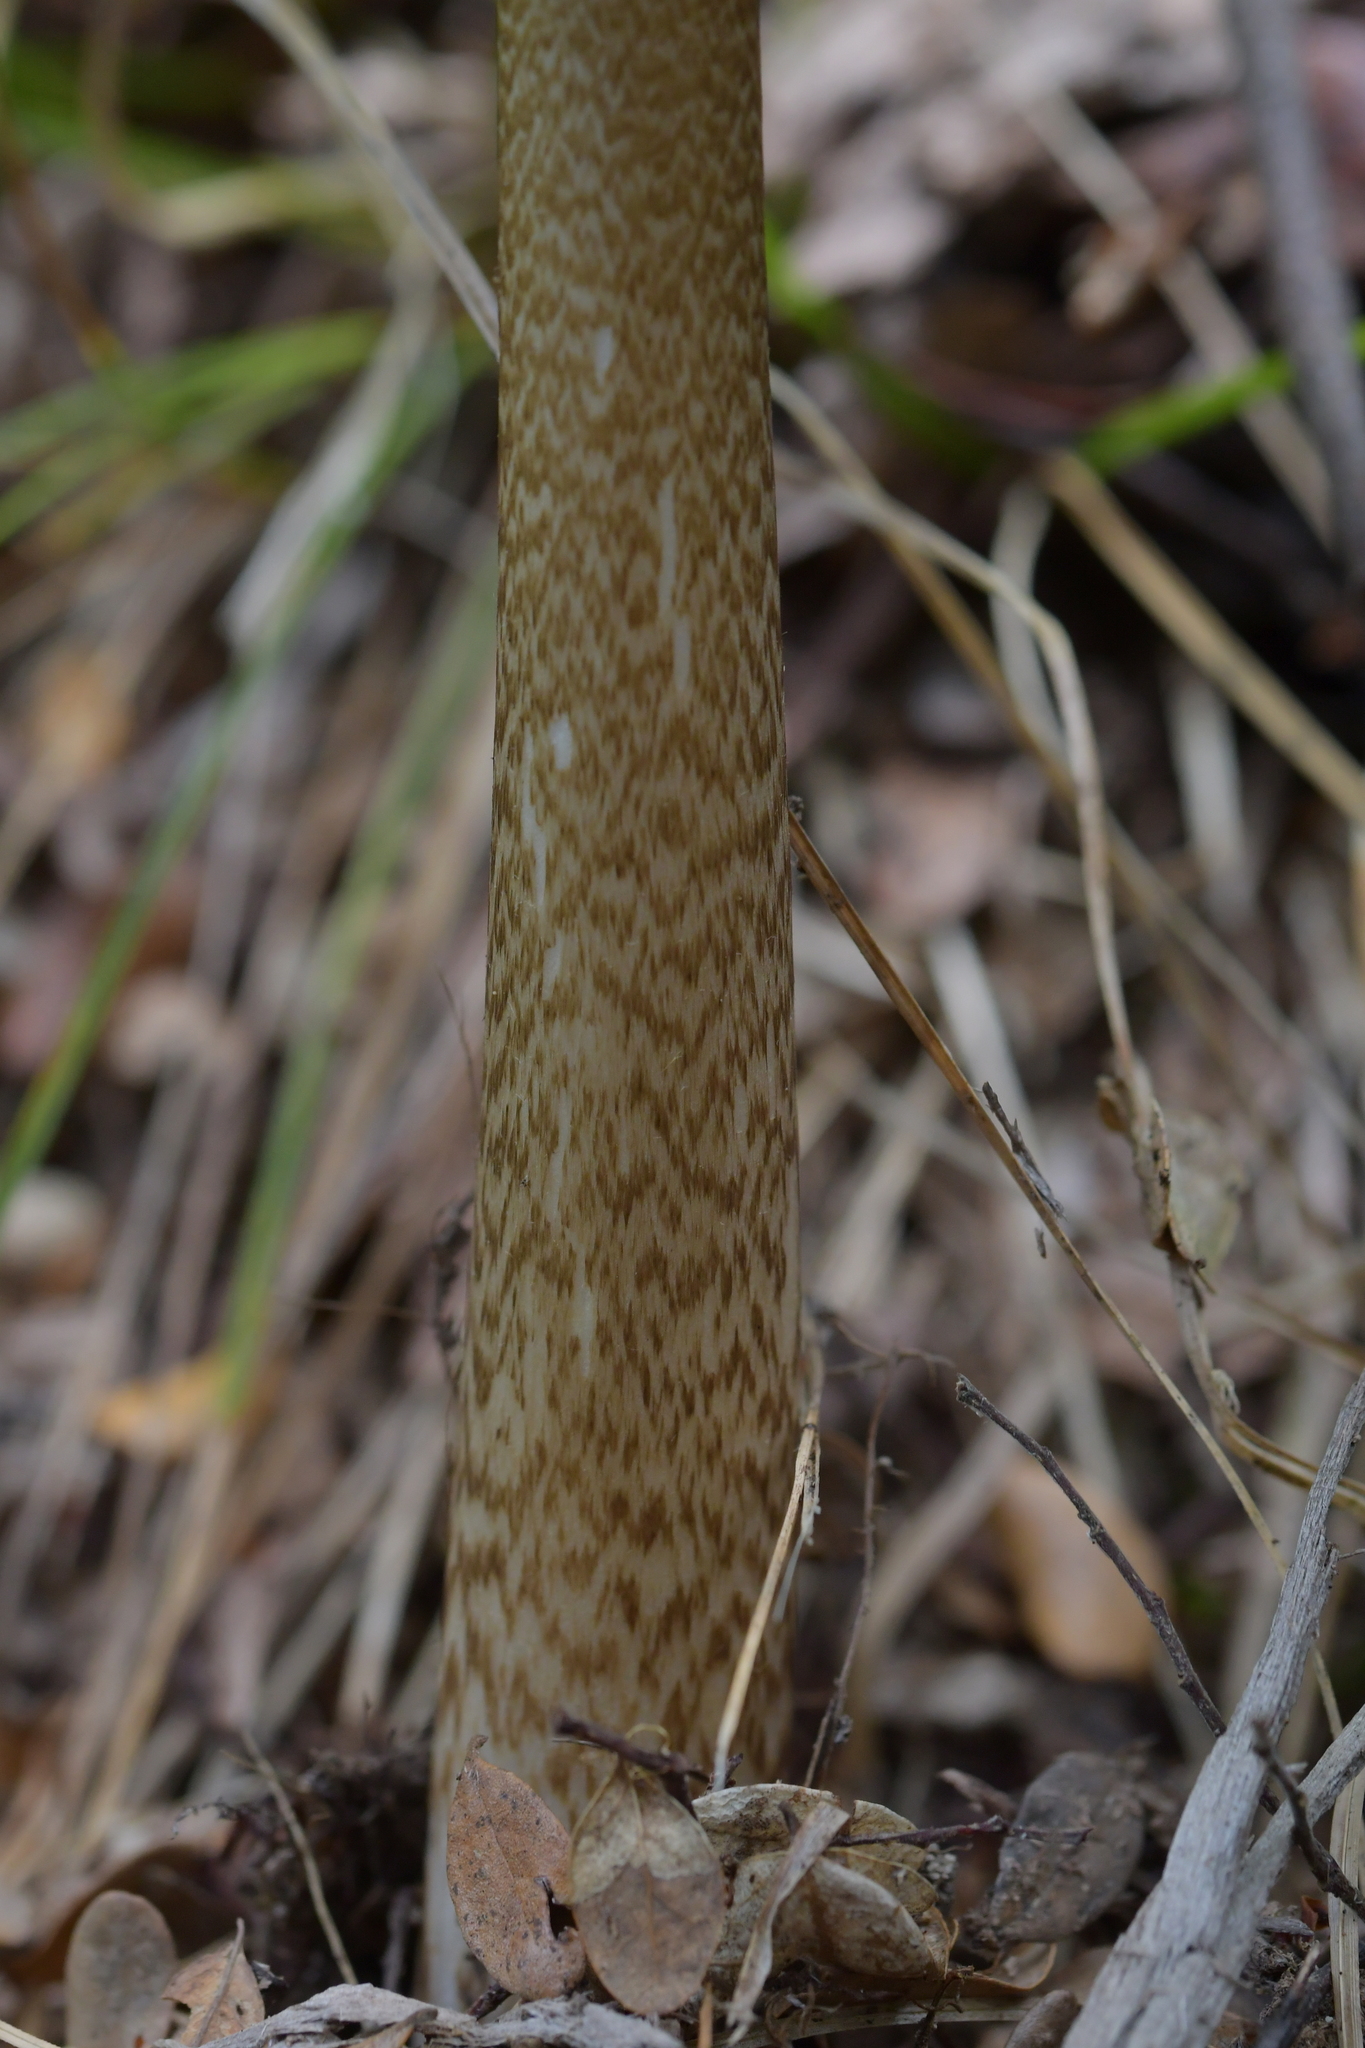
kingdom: Fungi
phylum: Basidiomycota
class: Agaricomycetes
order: Agaricales
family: Amanitaceae
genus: Amanita
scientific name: Amanita pekeoides
